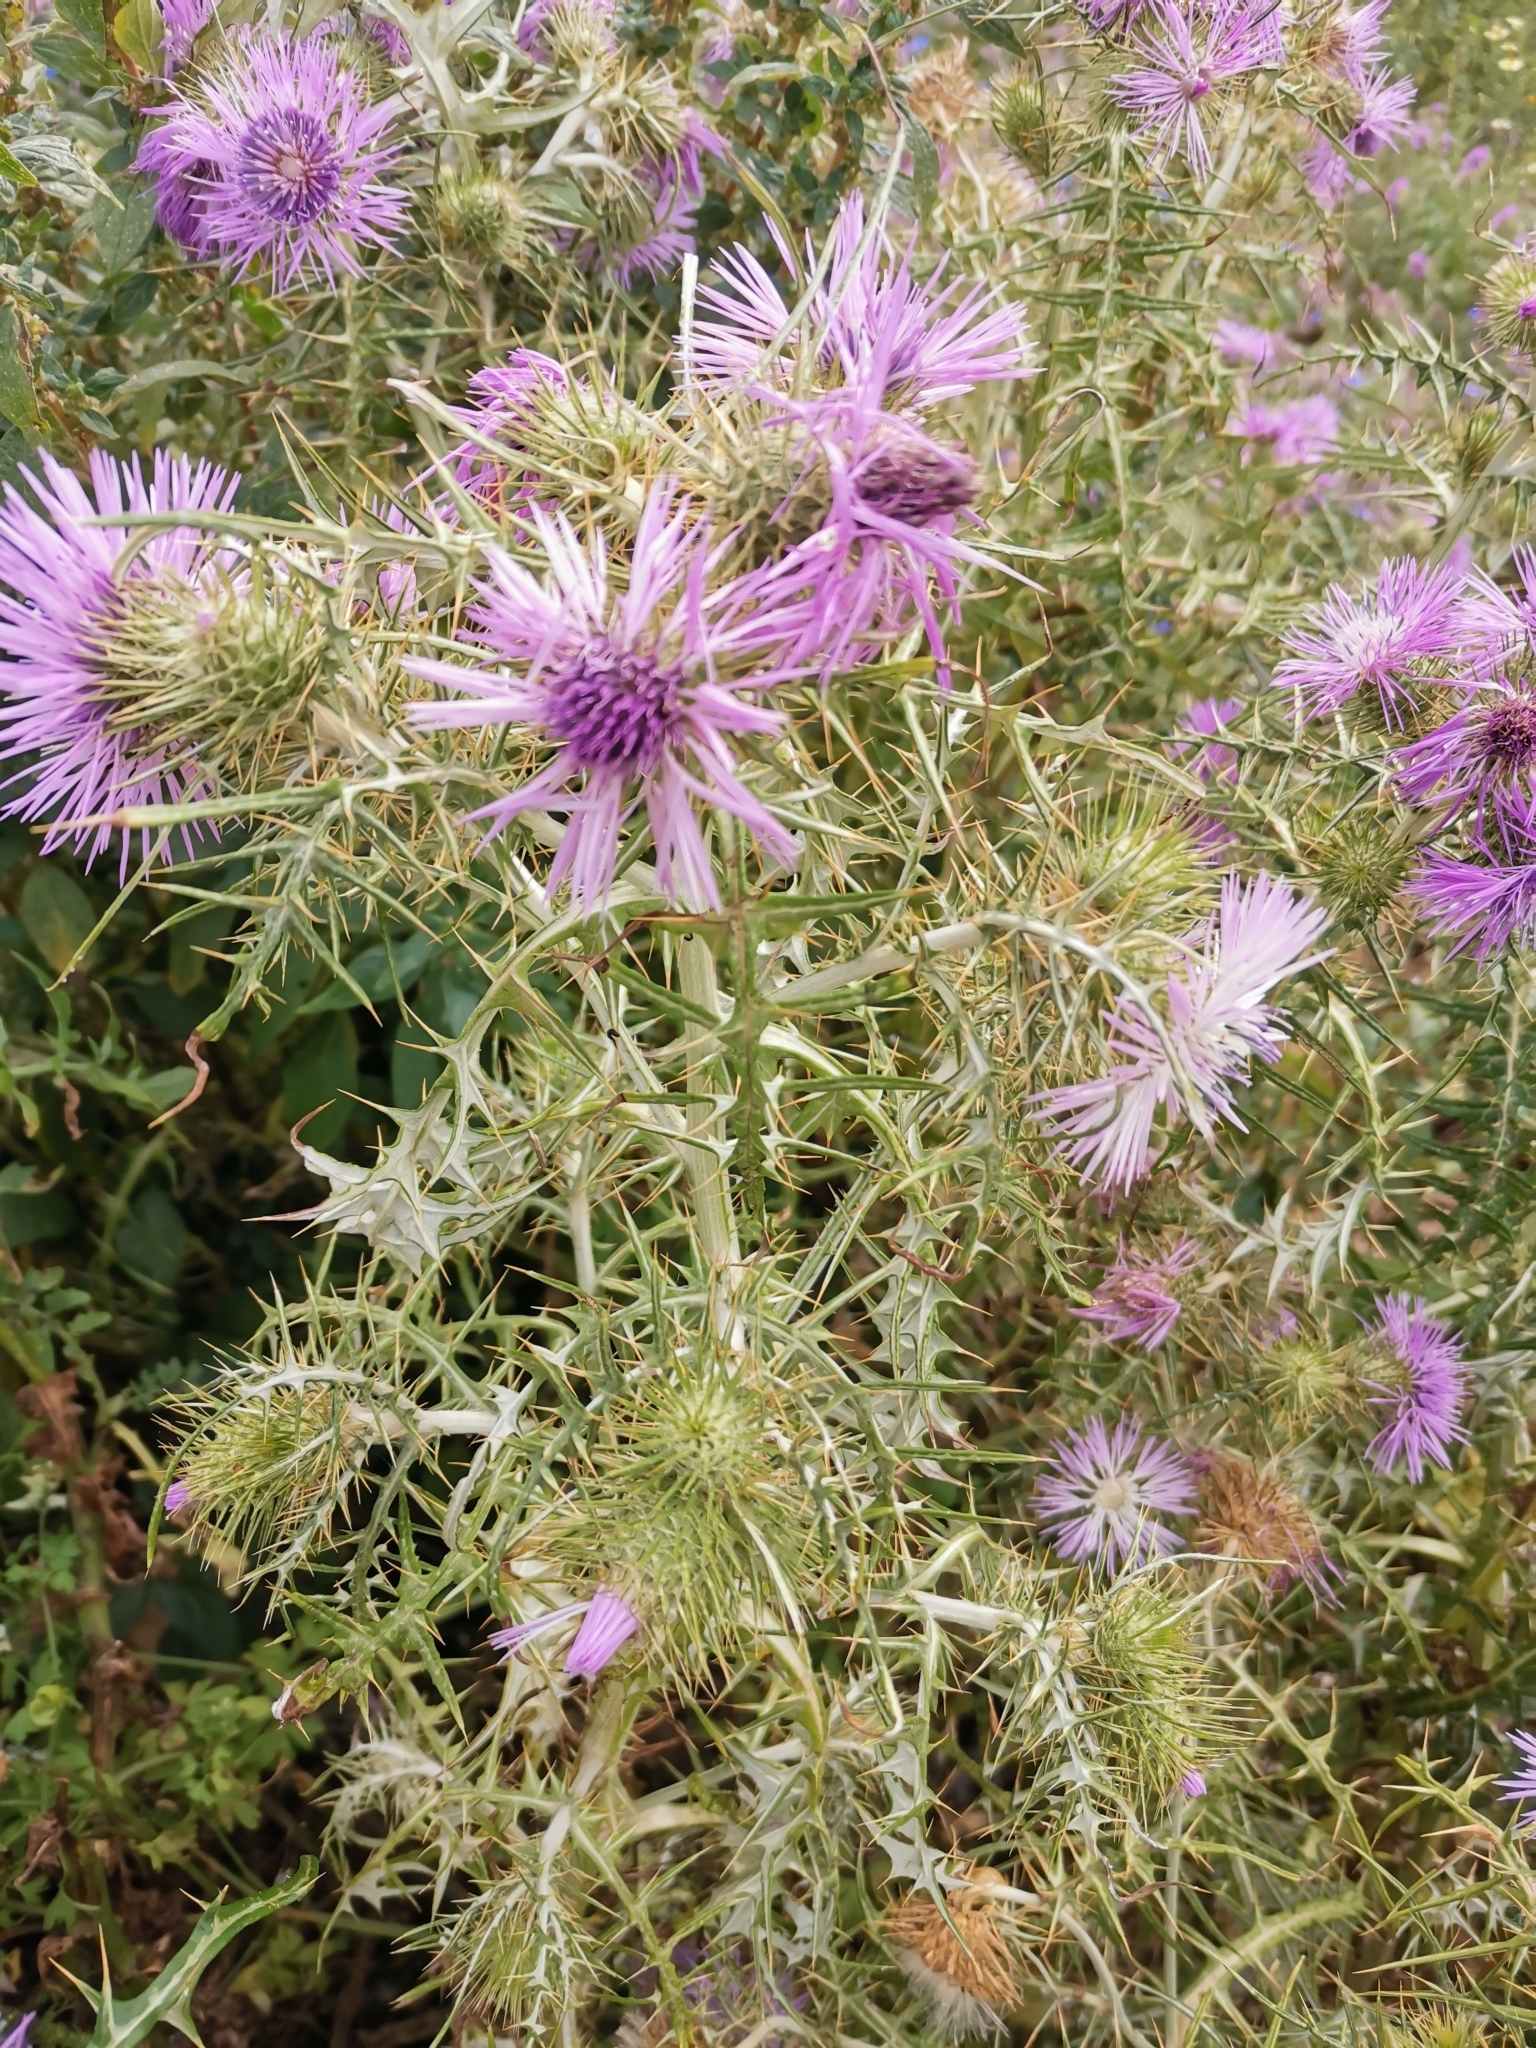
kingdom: Plantae
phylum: Tracheophyta
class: Magnoliopsida
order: Asterales
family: Asteraceae
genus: Galactites
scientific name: Galactites tomentosa
